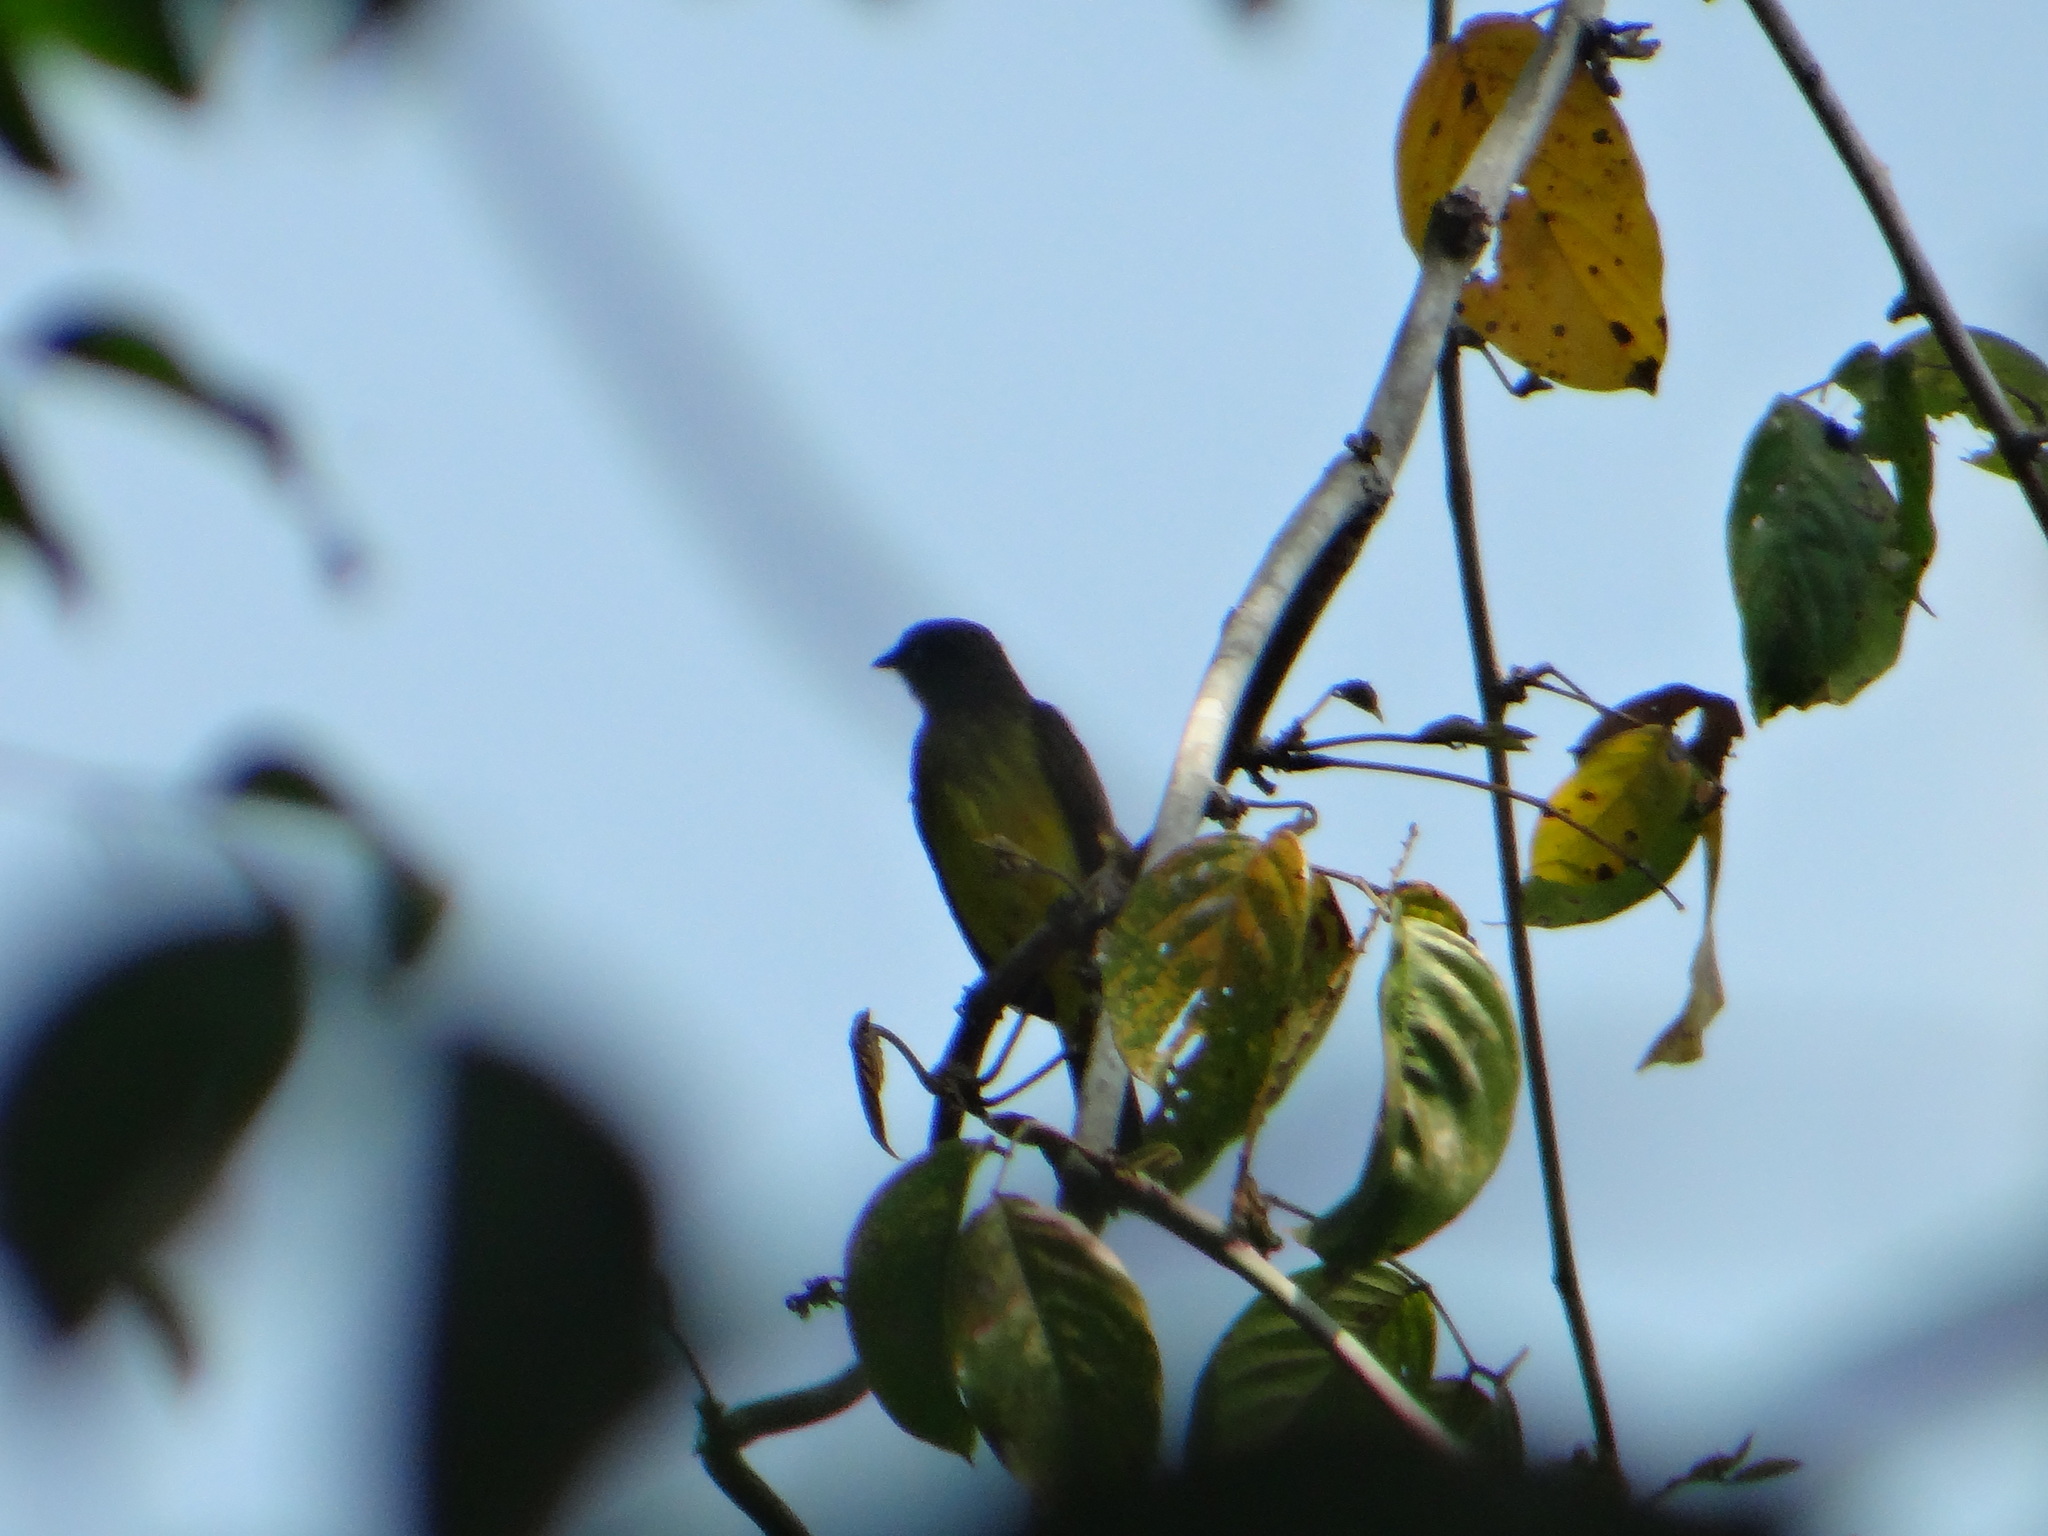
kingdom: Animalia
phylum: Chordata
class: Aves
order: Passeriformes
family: Tyrannidae
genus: Myiozetetes
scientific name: Myiozetetes luteiventris
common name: Dusky-chested flycatcher
